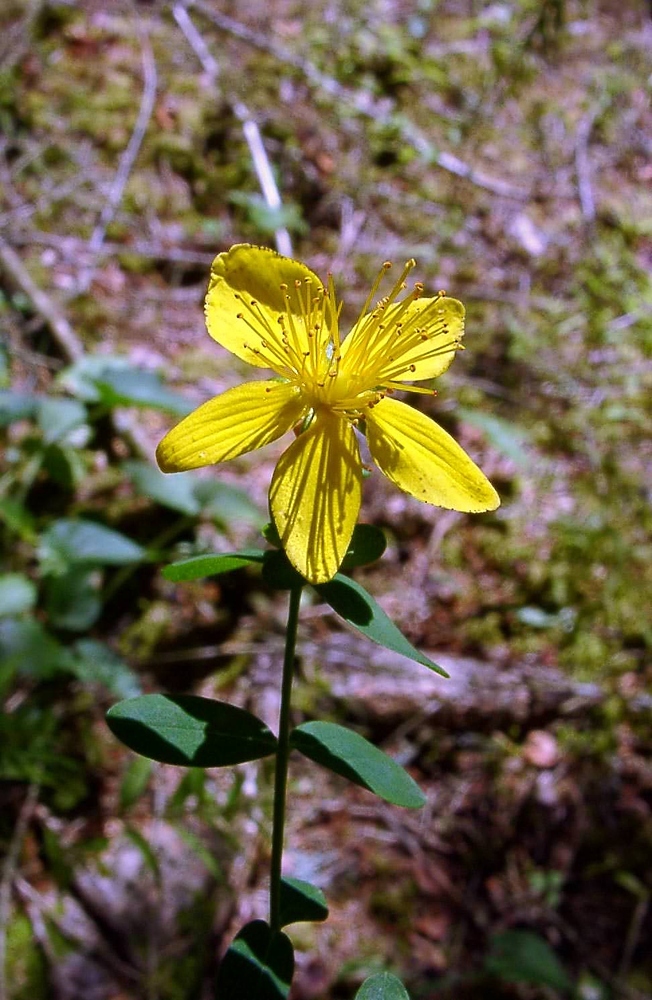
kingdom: Plantae
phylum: Tracheophyta
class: Magnoliopsida
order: Malpighiales
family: Hypericaceae
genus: Hypericum
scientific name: Hypericum perforatum
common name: Common st. johnswort
